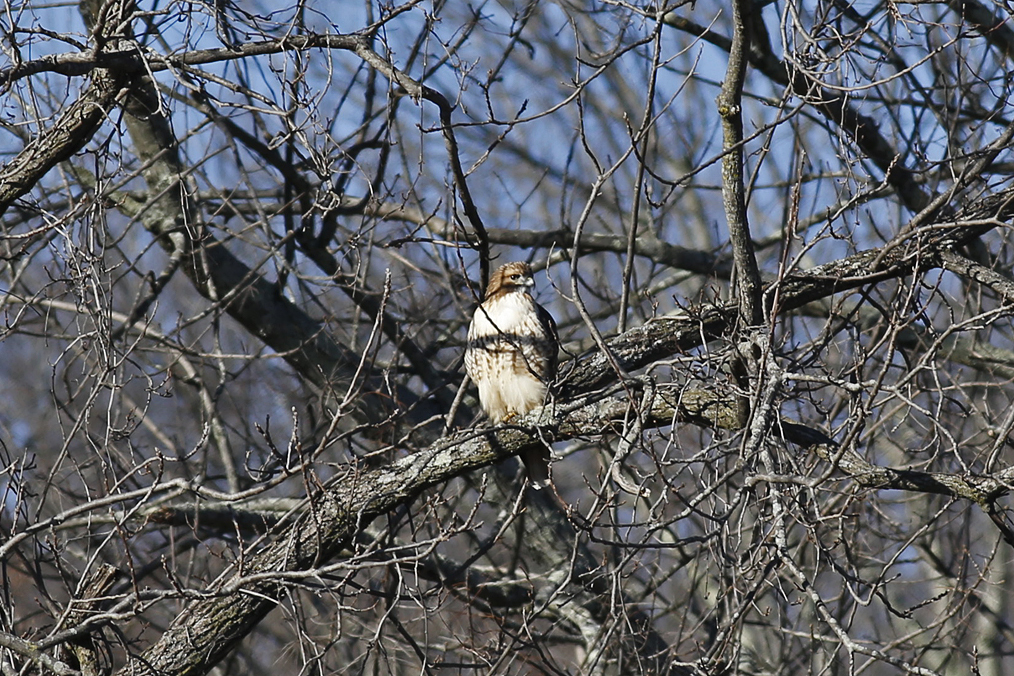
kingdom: Animalia
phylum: Chordata
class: Aves
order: Accipitriformes
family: Accipitridae
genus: Buteo
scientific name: Buteo jamaicensis
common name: Red-tailed hawk
